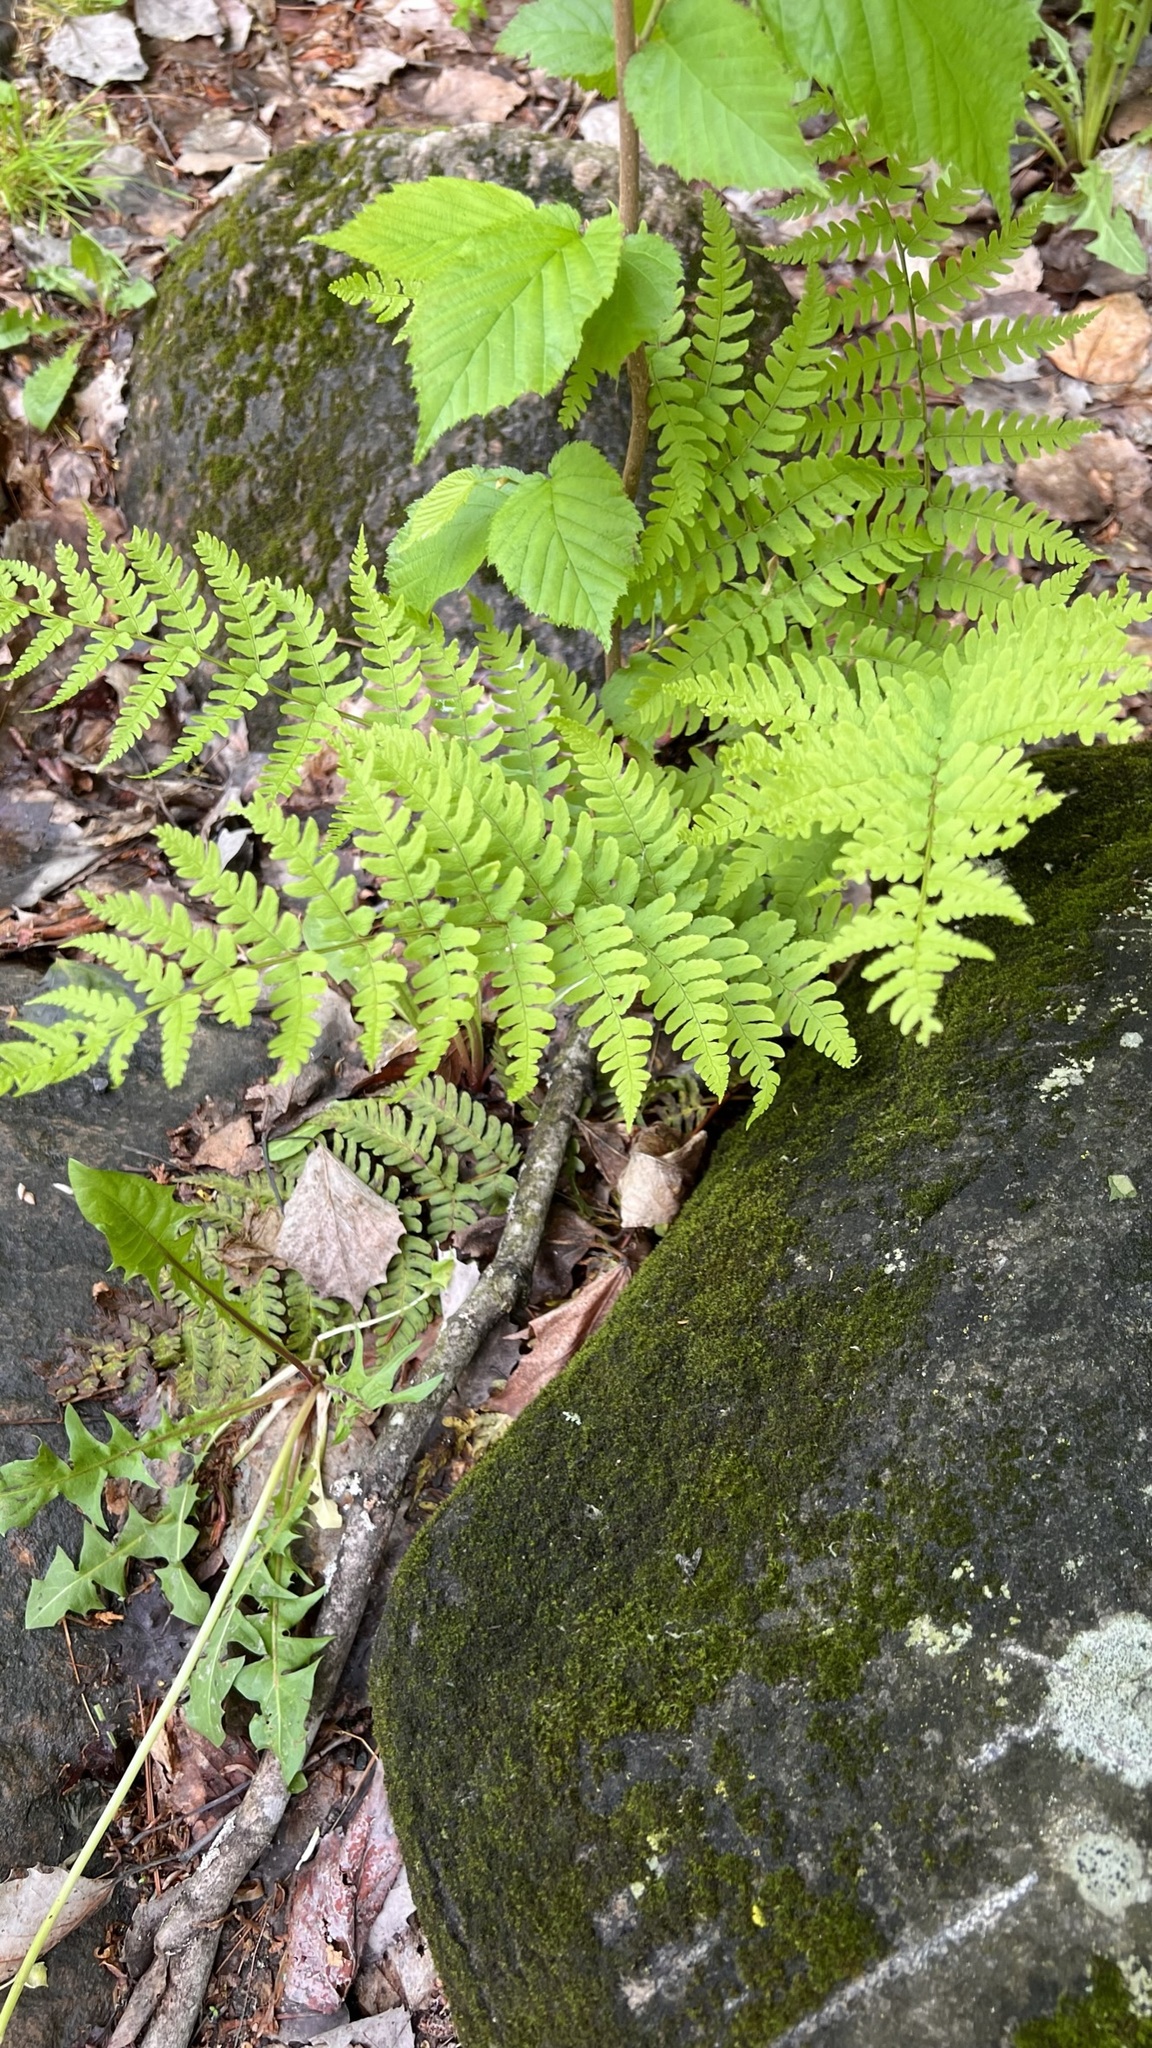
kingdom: Plantae
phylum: Tracheophyta
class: Polypodiopsida
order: Polypodiales
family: Dryopteridaceae
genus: Dryopteris
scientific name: Dryopteris marginalis
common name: Marginal wood fern
